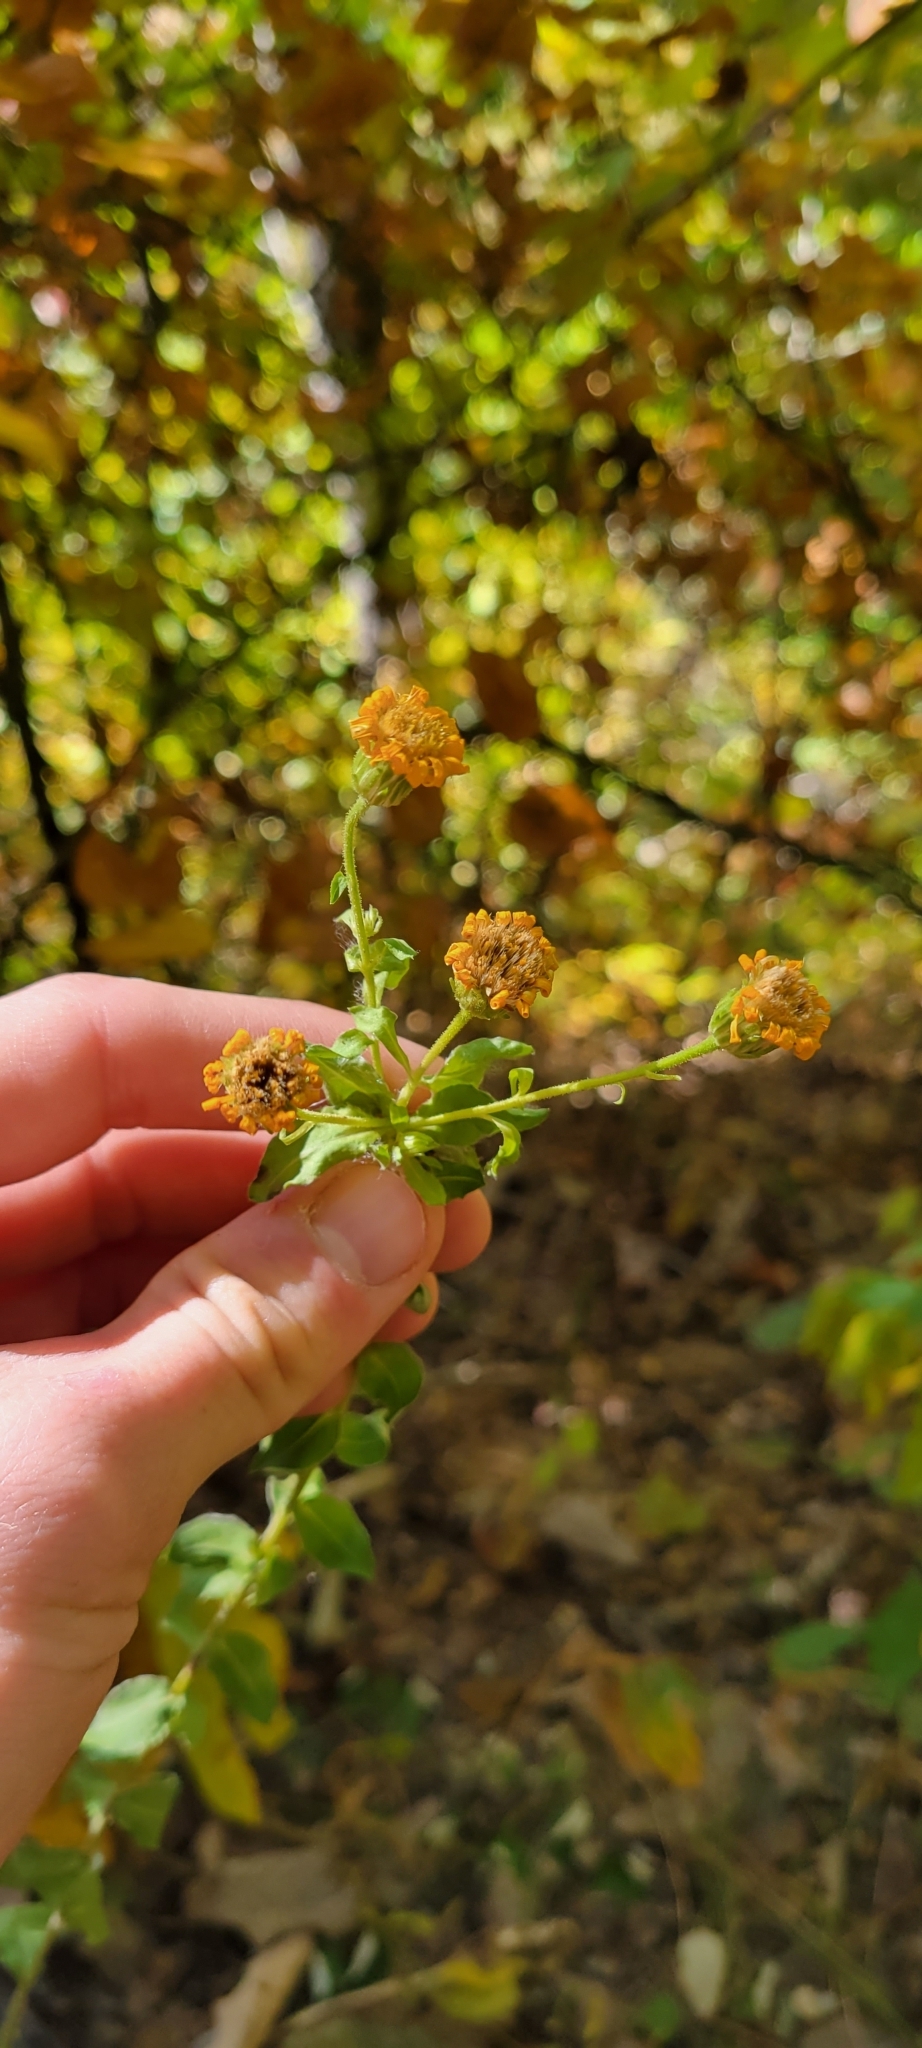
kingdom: Plantae
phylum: Tracheophyta
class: Magnoliopsida
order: Asterales
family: Asteraceae
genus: Chrysopsis
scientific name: Chrysopsis mariana
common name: Maryland golden-aster
